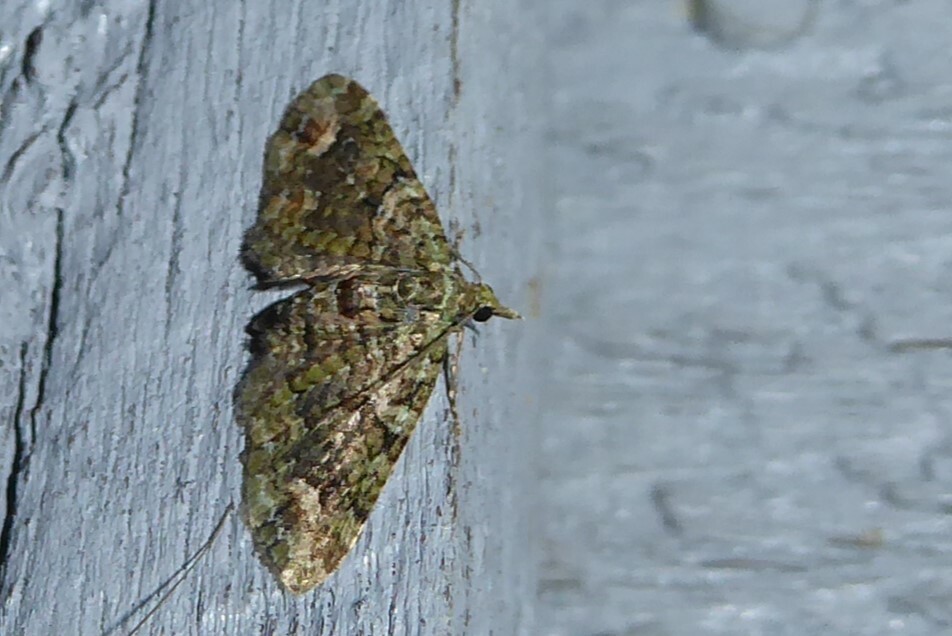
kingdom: Animalia
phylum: Arthropoda
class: Insecta
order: Lepidoptera
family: Geometridae
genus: Idaea
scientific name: Idaea mutanda
